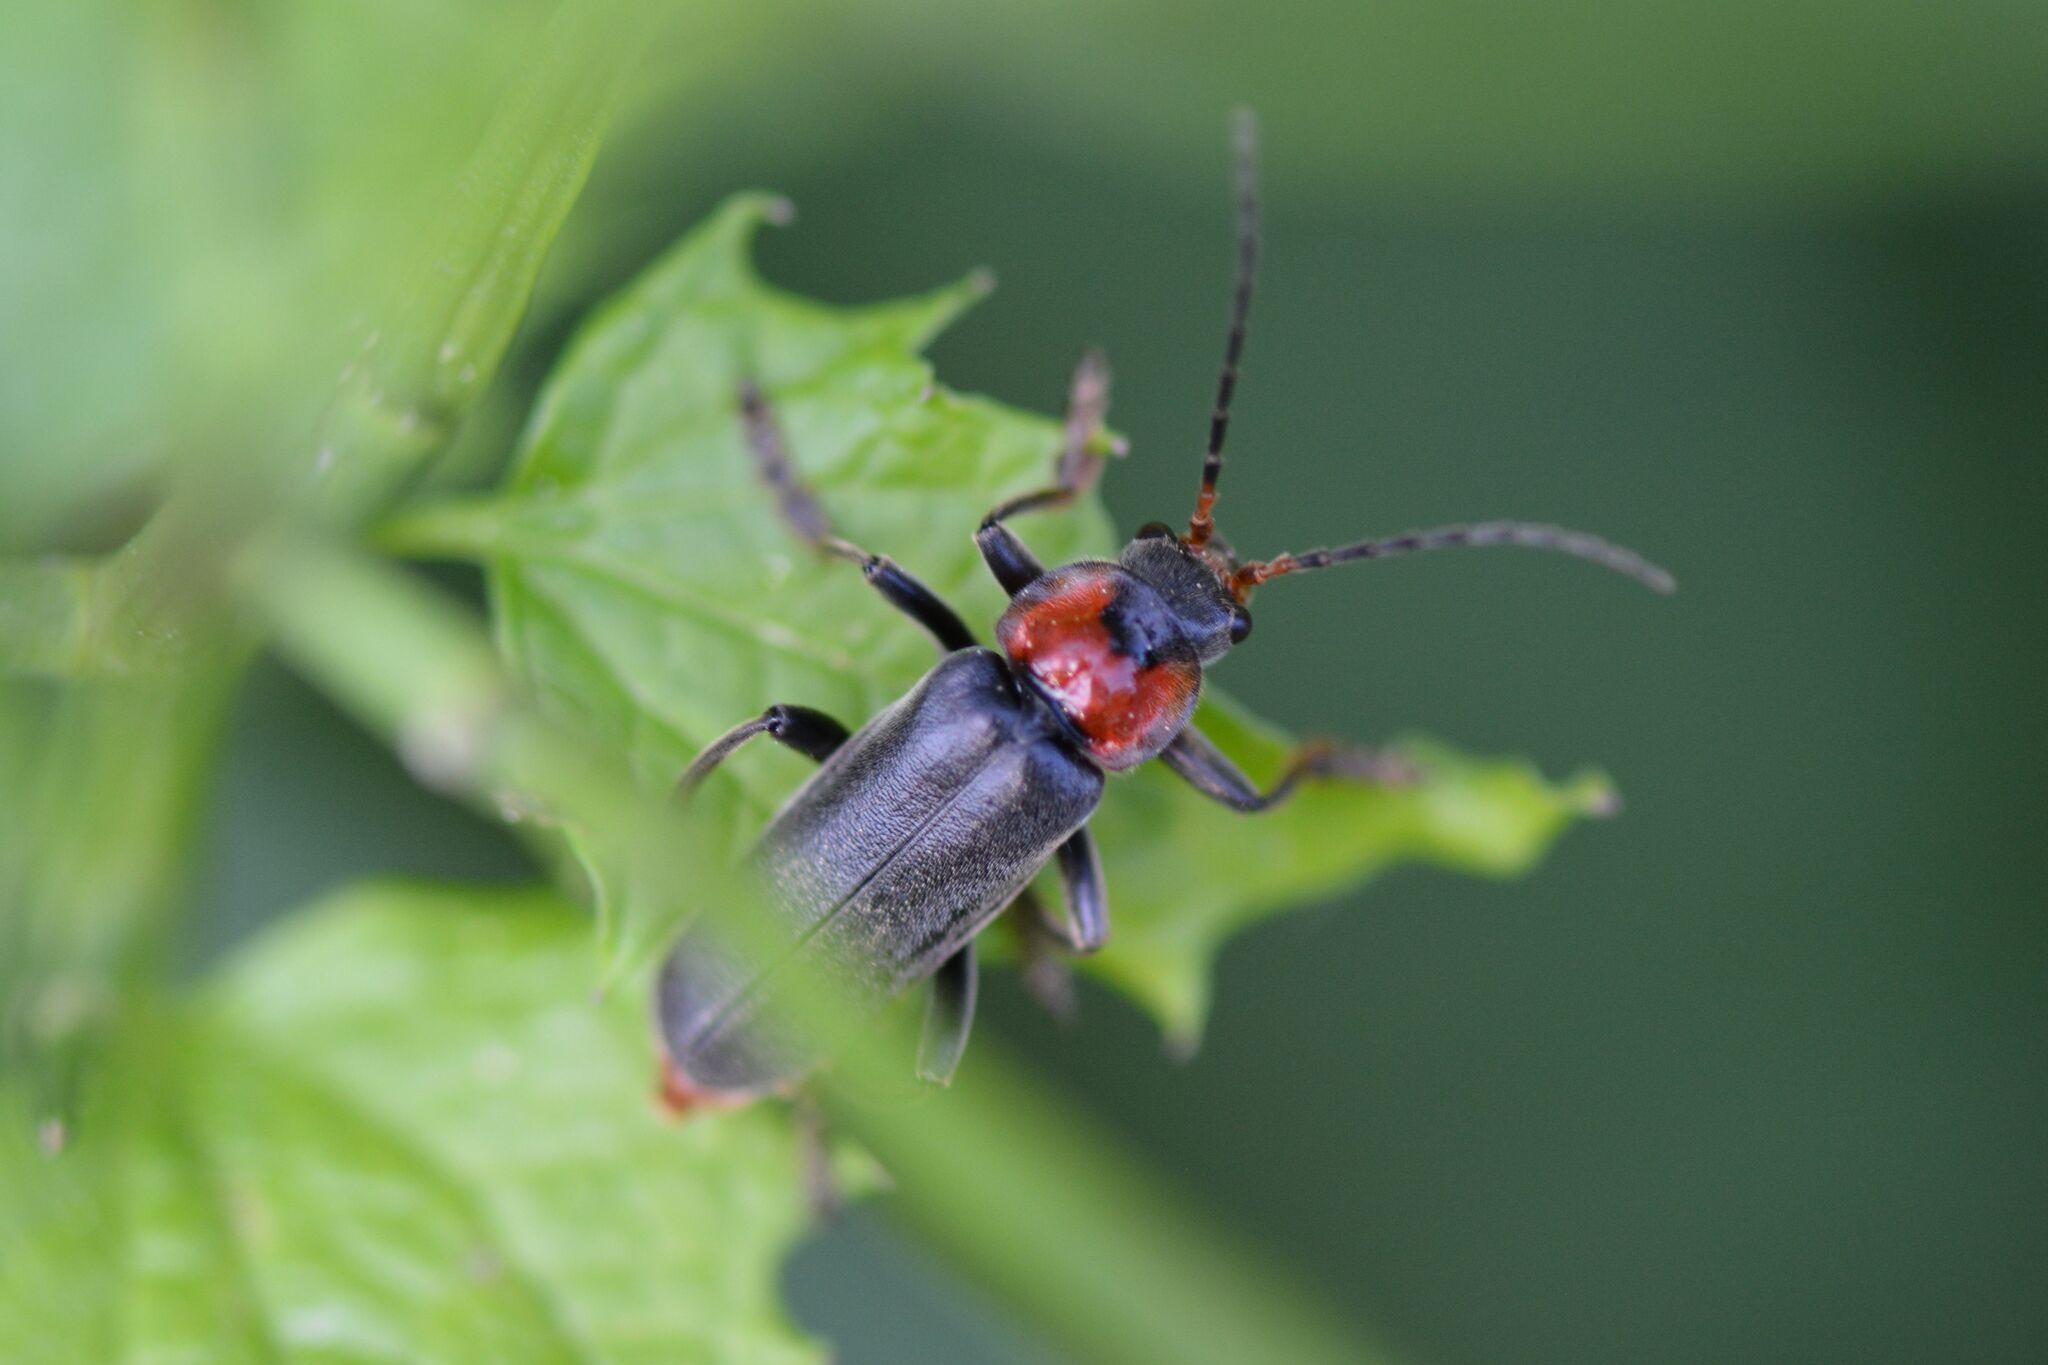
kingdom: Animalia
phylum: Arthropoda
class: Insecta
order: Coleoptera
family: Cantharidae
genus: Cantharis
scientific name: Cantharis fusca
